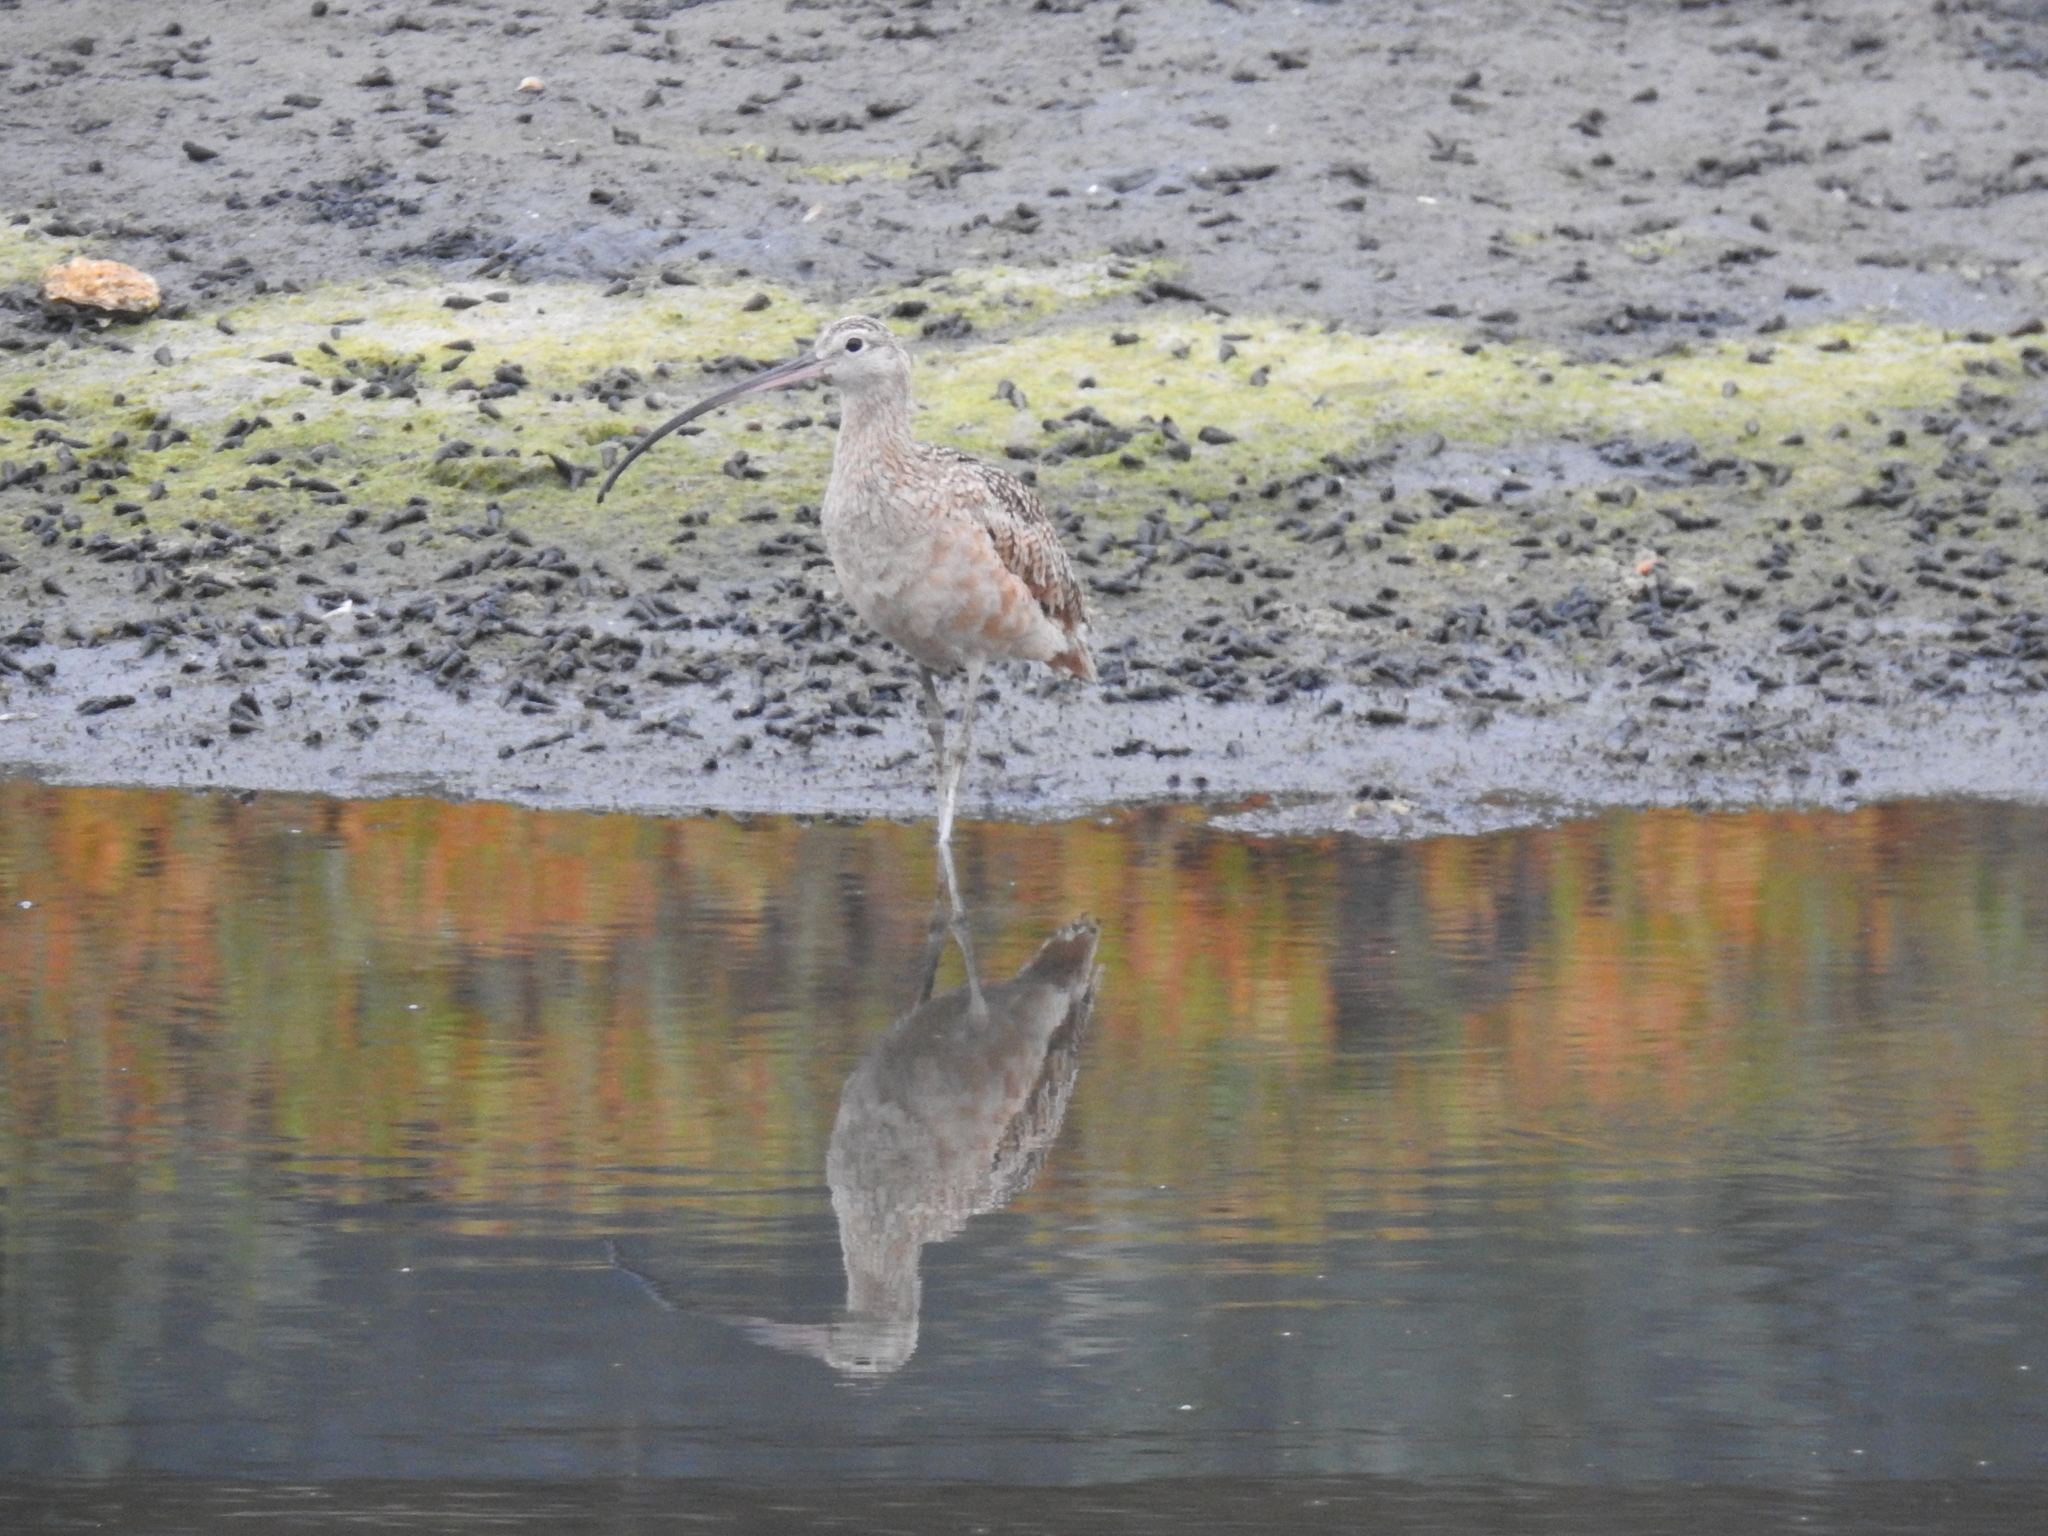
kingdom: Animalia
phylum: Chordata
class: Aves
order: Charadriiformes
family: Scolopacidae
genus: Numenius
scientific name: Numenius americanus
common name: Long-billed curlew
